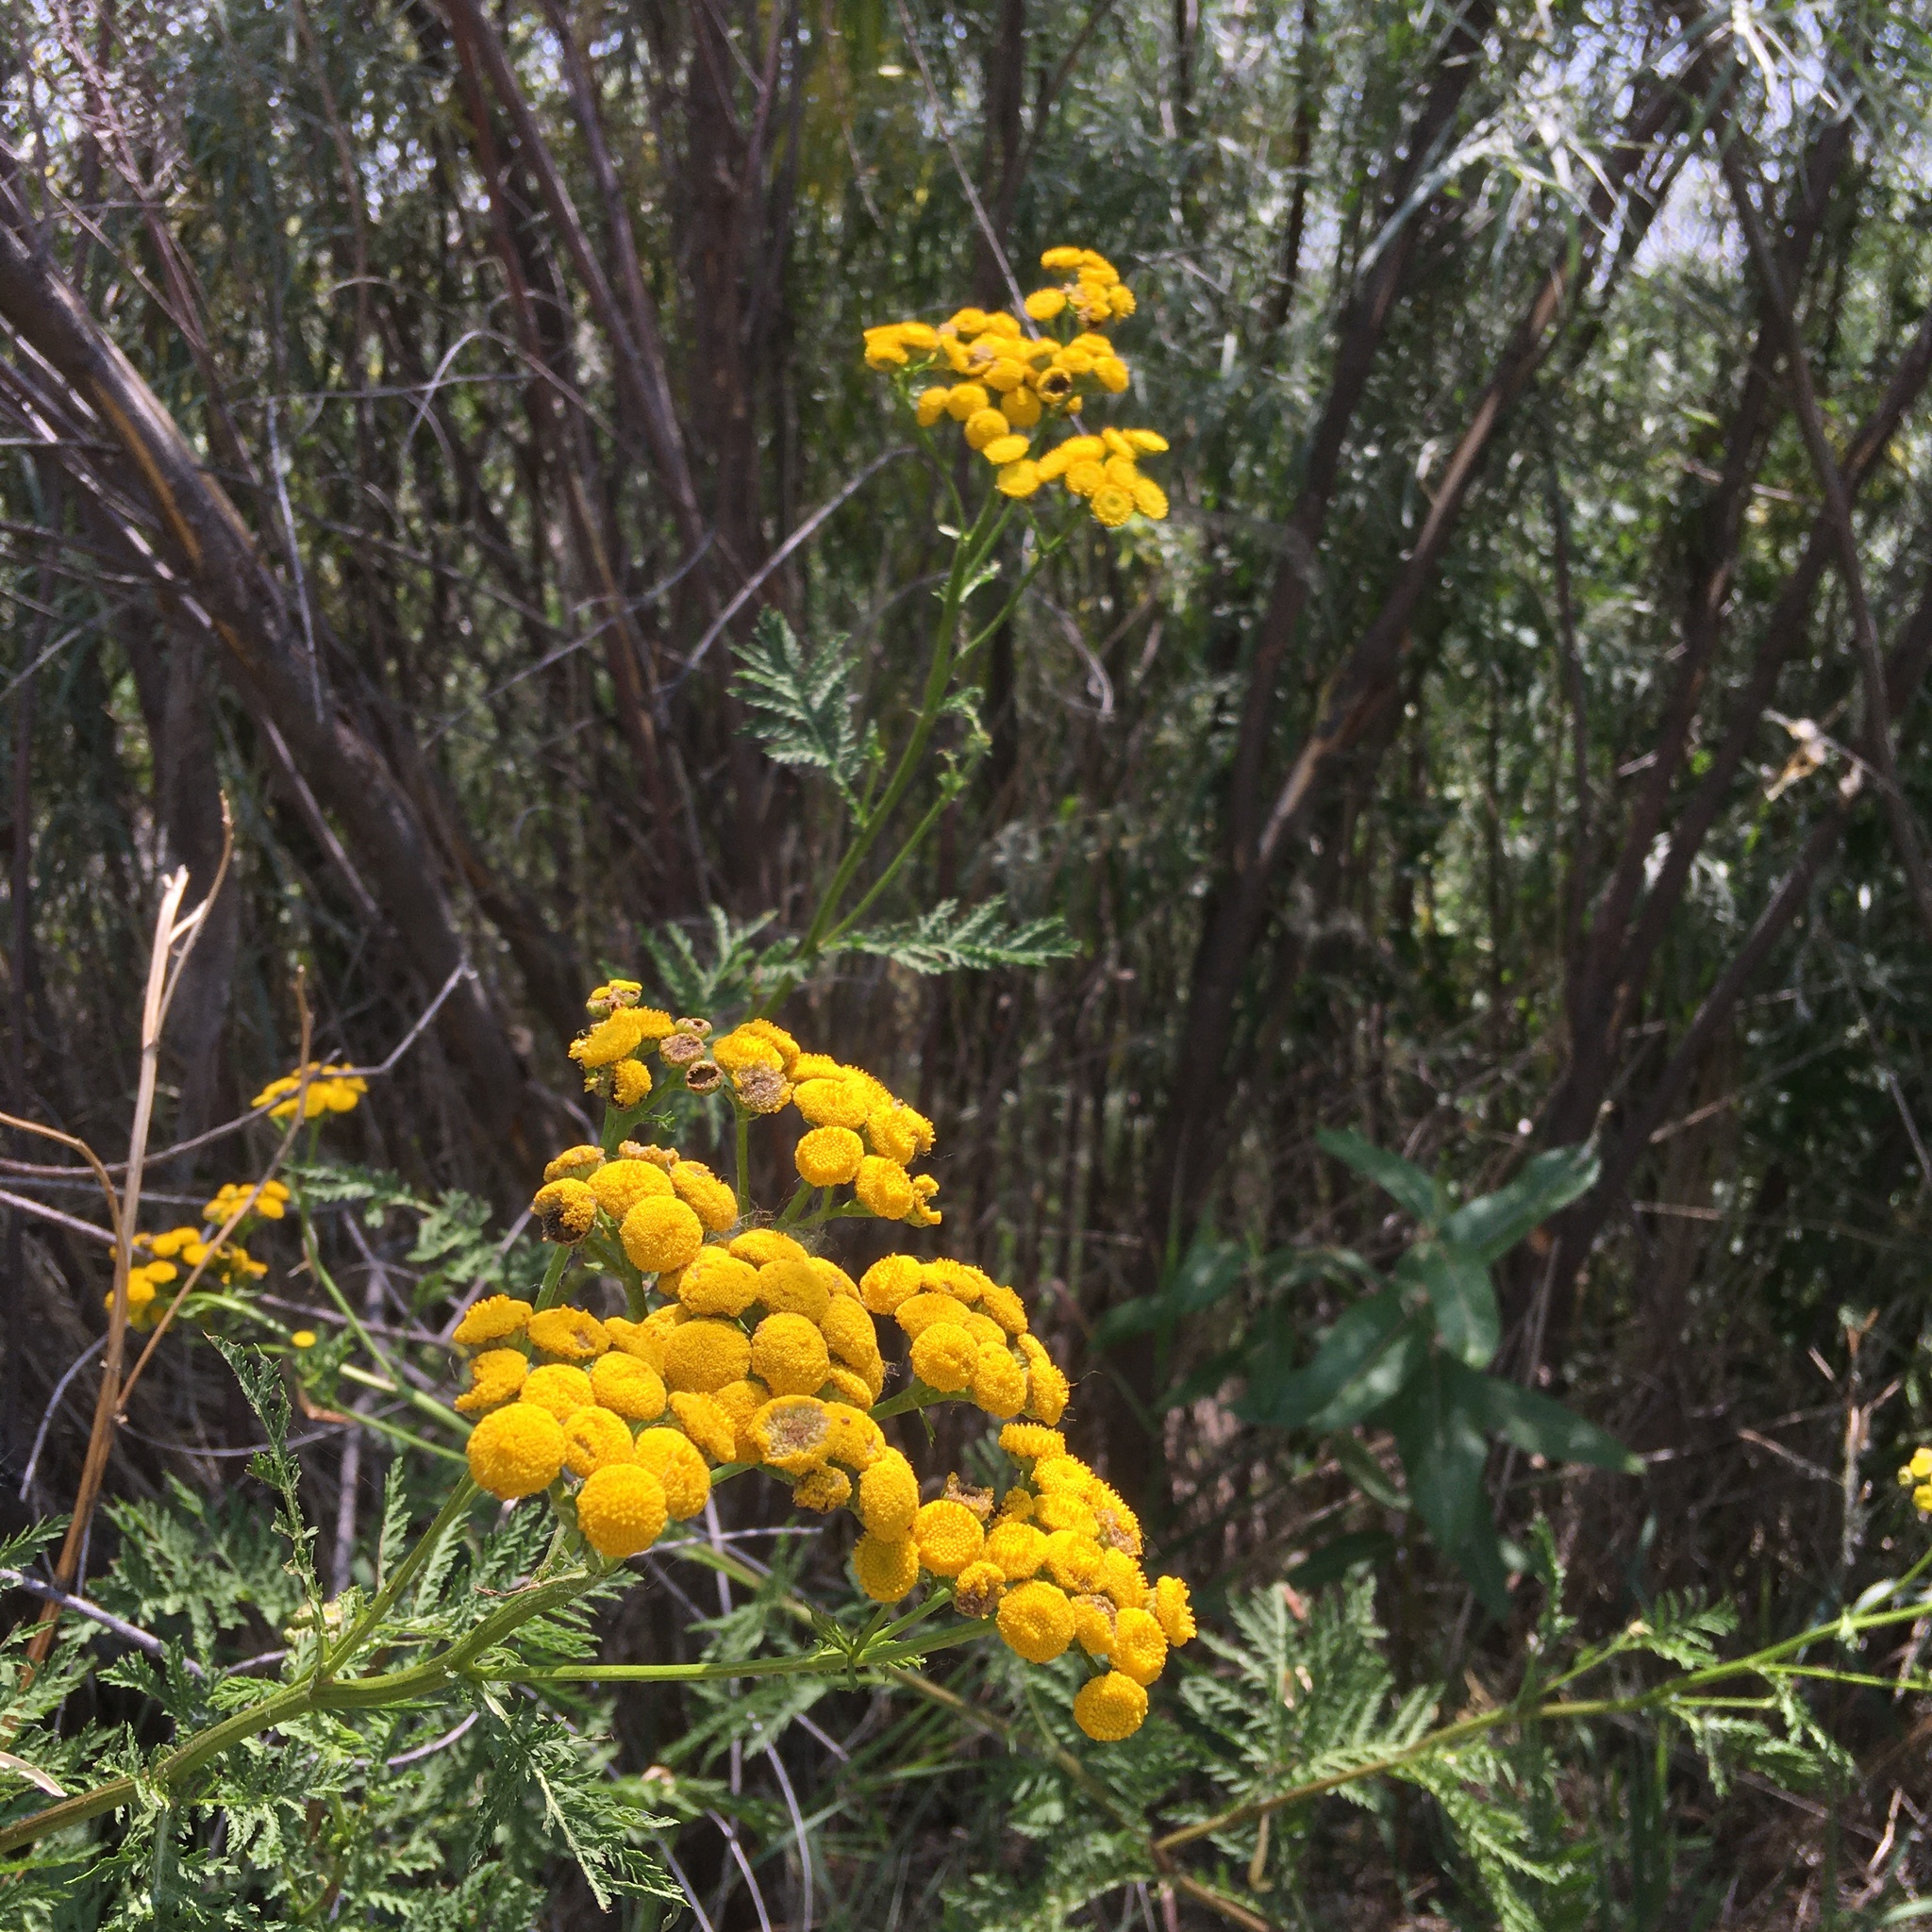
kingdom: Plantae
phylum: Tracheophyta
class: Magnoliopsida
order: Asterales
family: Asteraceae
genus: Tanacetum
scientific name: Tanacetum vulgare
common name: Common tansy
